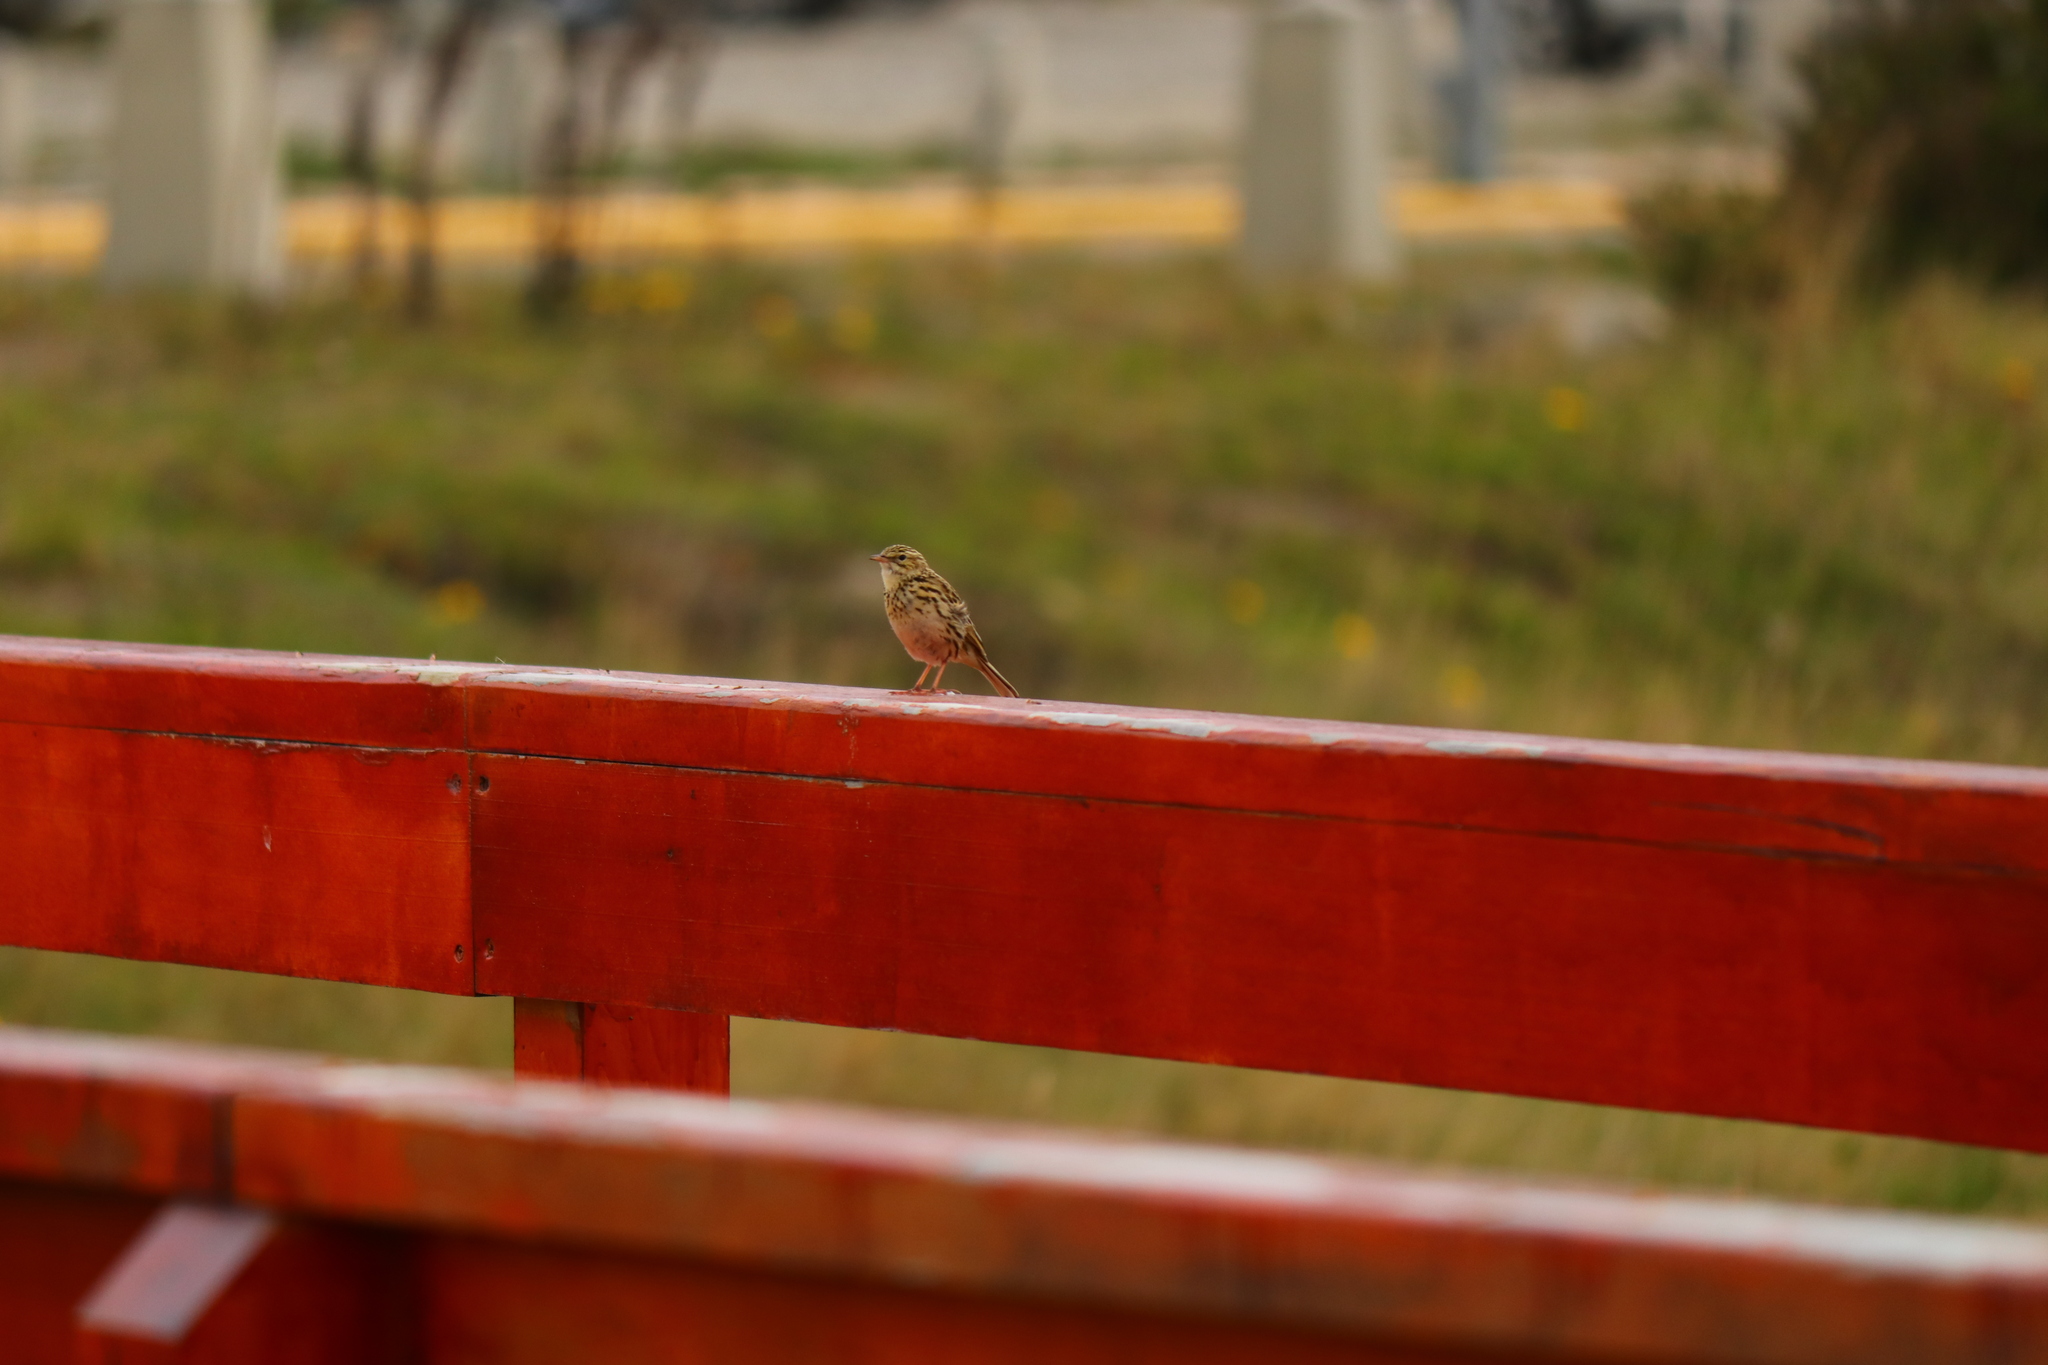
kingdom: Animalia
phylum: Chordata
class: Aves
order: Passeriformes
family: Motacillidae
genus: Anthus
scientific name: Anthus correndera
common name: Correndera pipit
